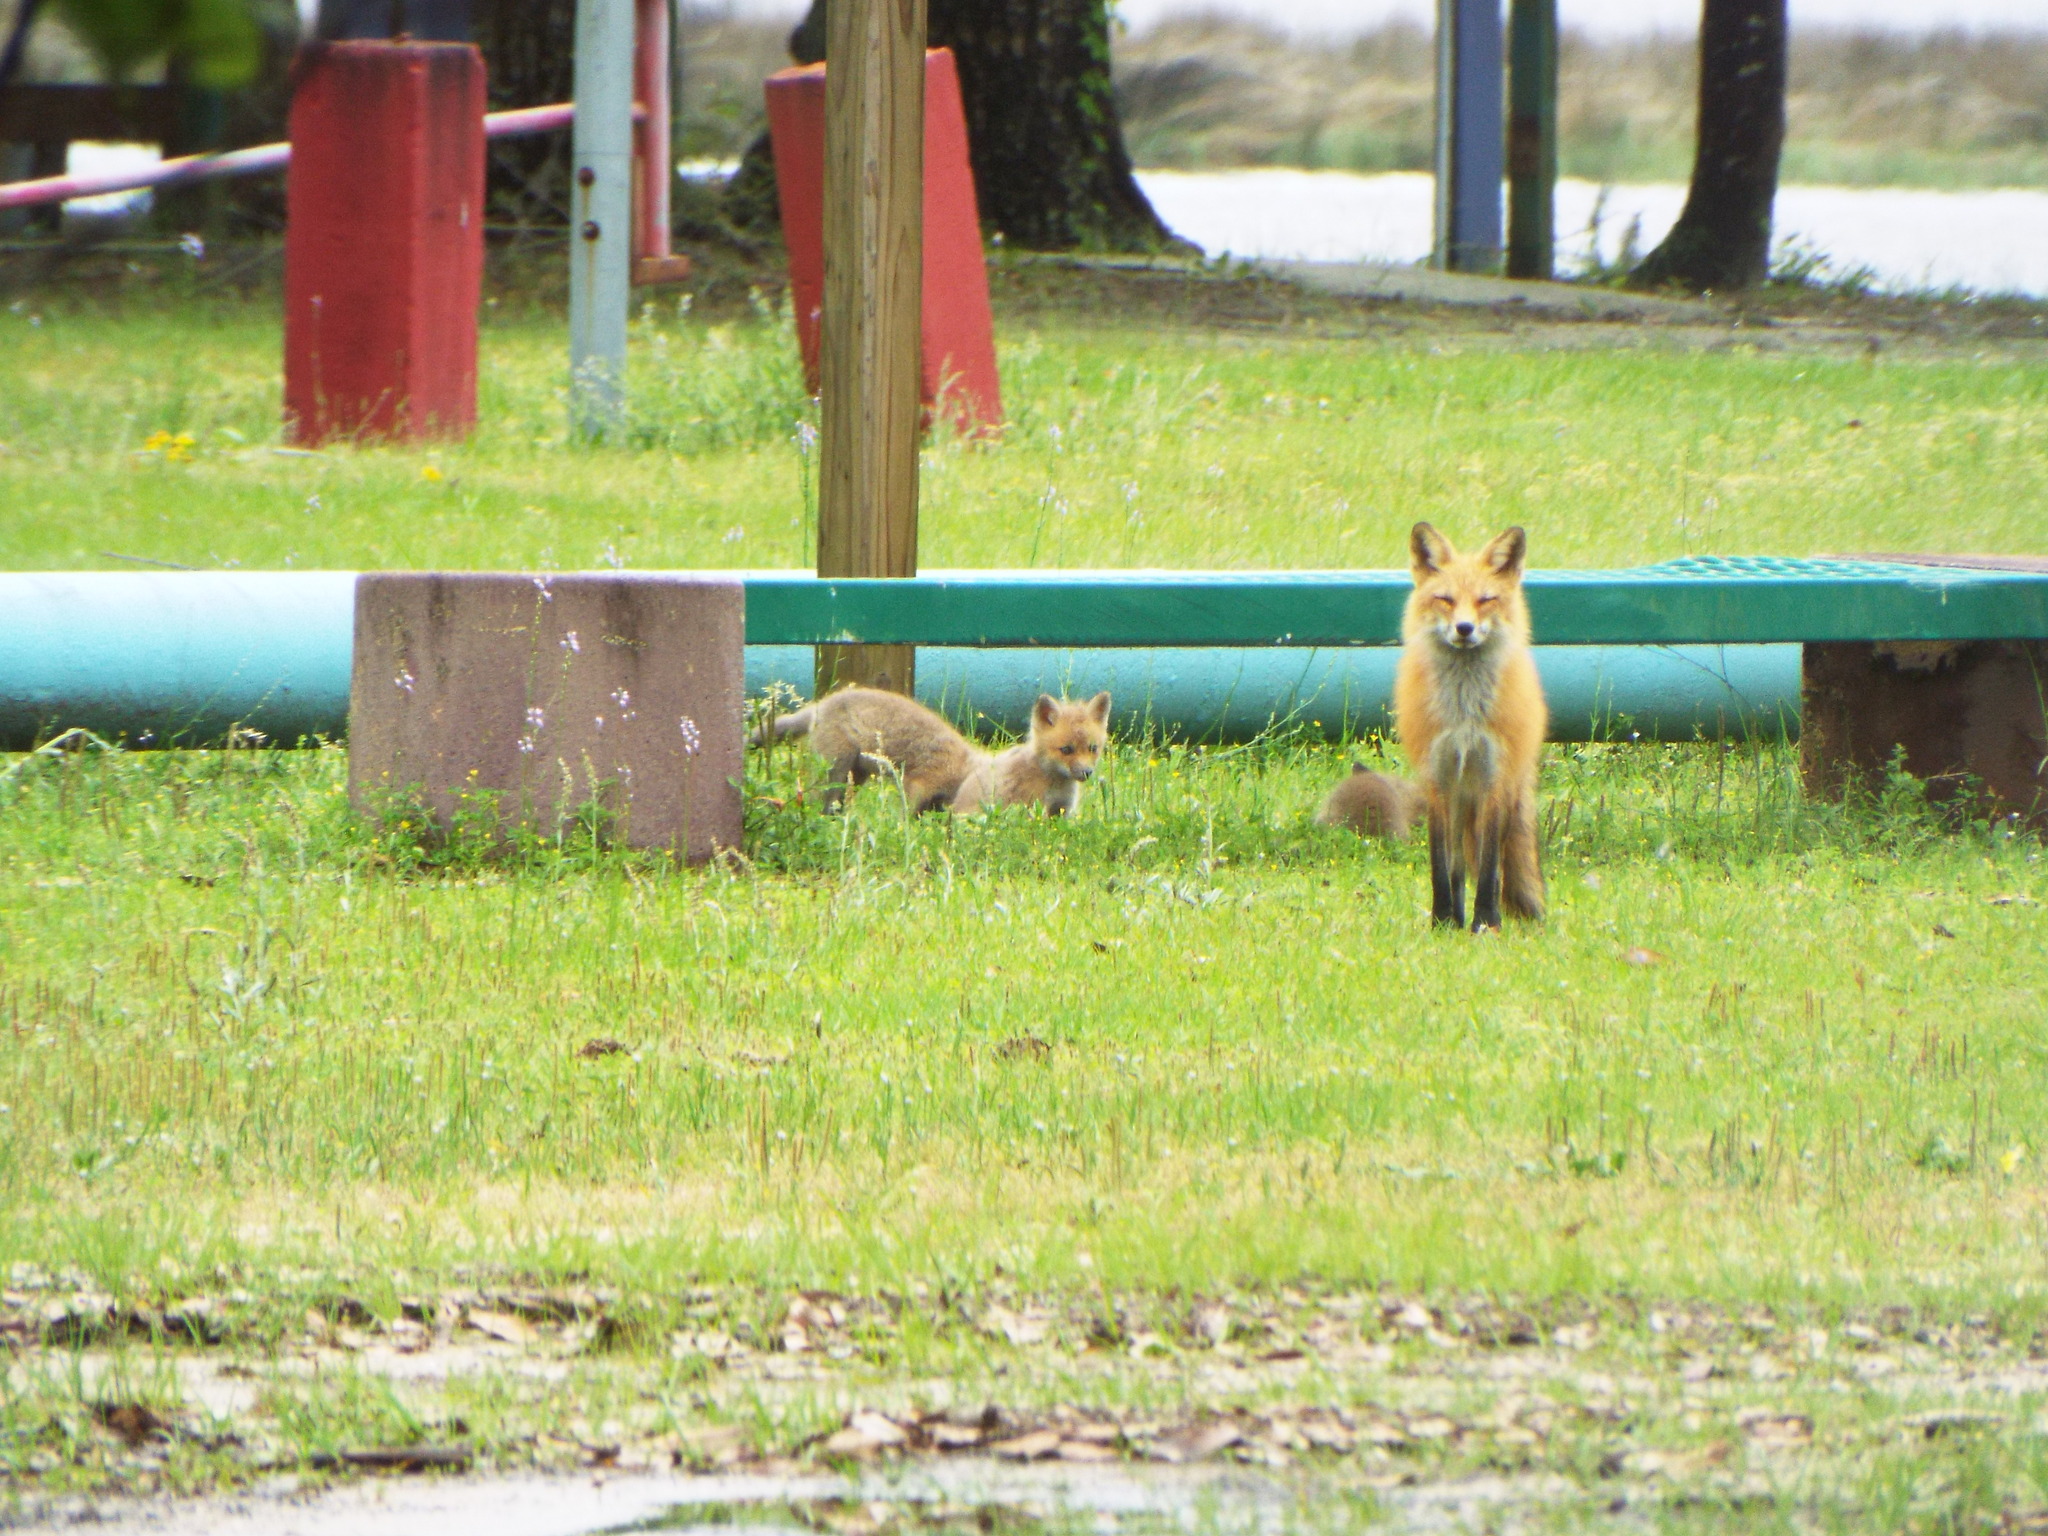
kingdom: Animalia
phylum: Chordata
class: Mammalia
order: Carnivora
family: Canidae
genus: Vulpes
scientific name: Vulpes vulpes
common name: Red fox
